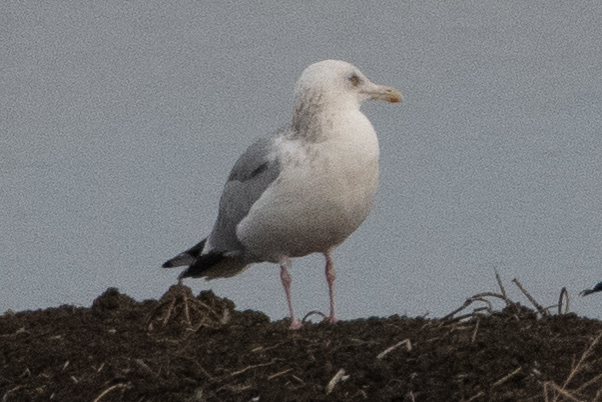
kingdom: Animalia
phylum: Chordata
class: Aves
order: Charadriiformes
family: Laridae
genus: Larus
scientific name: Larus argentatus
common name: Herring gull
